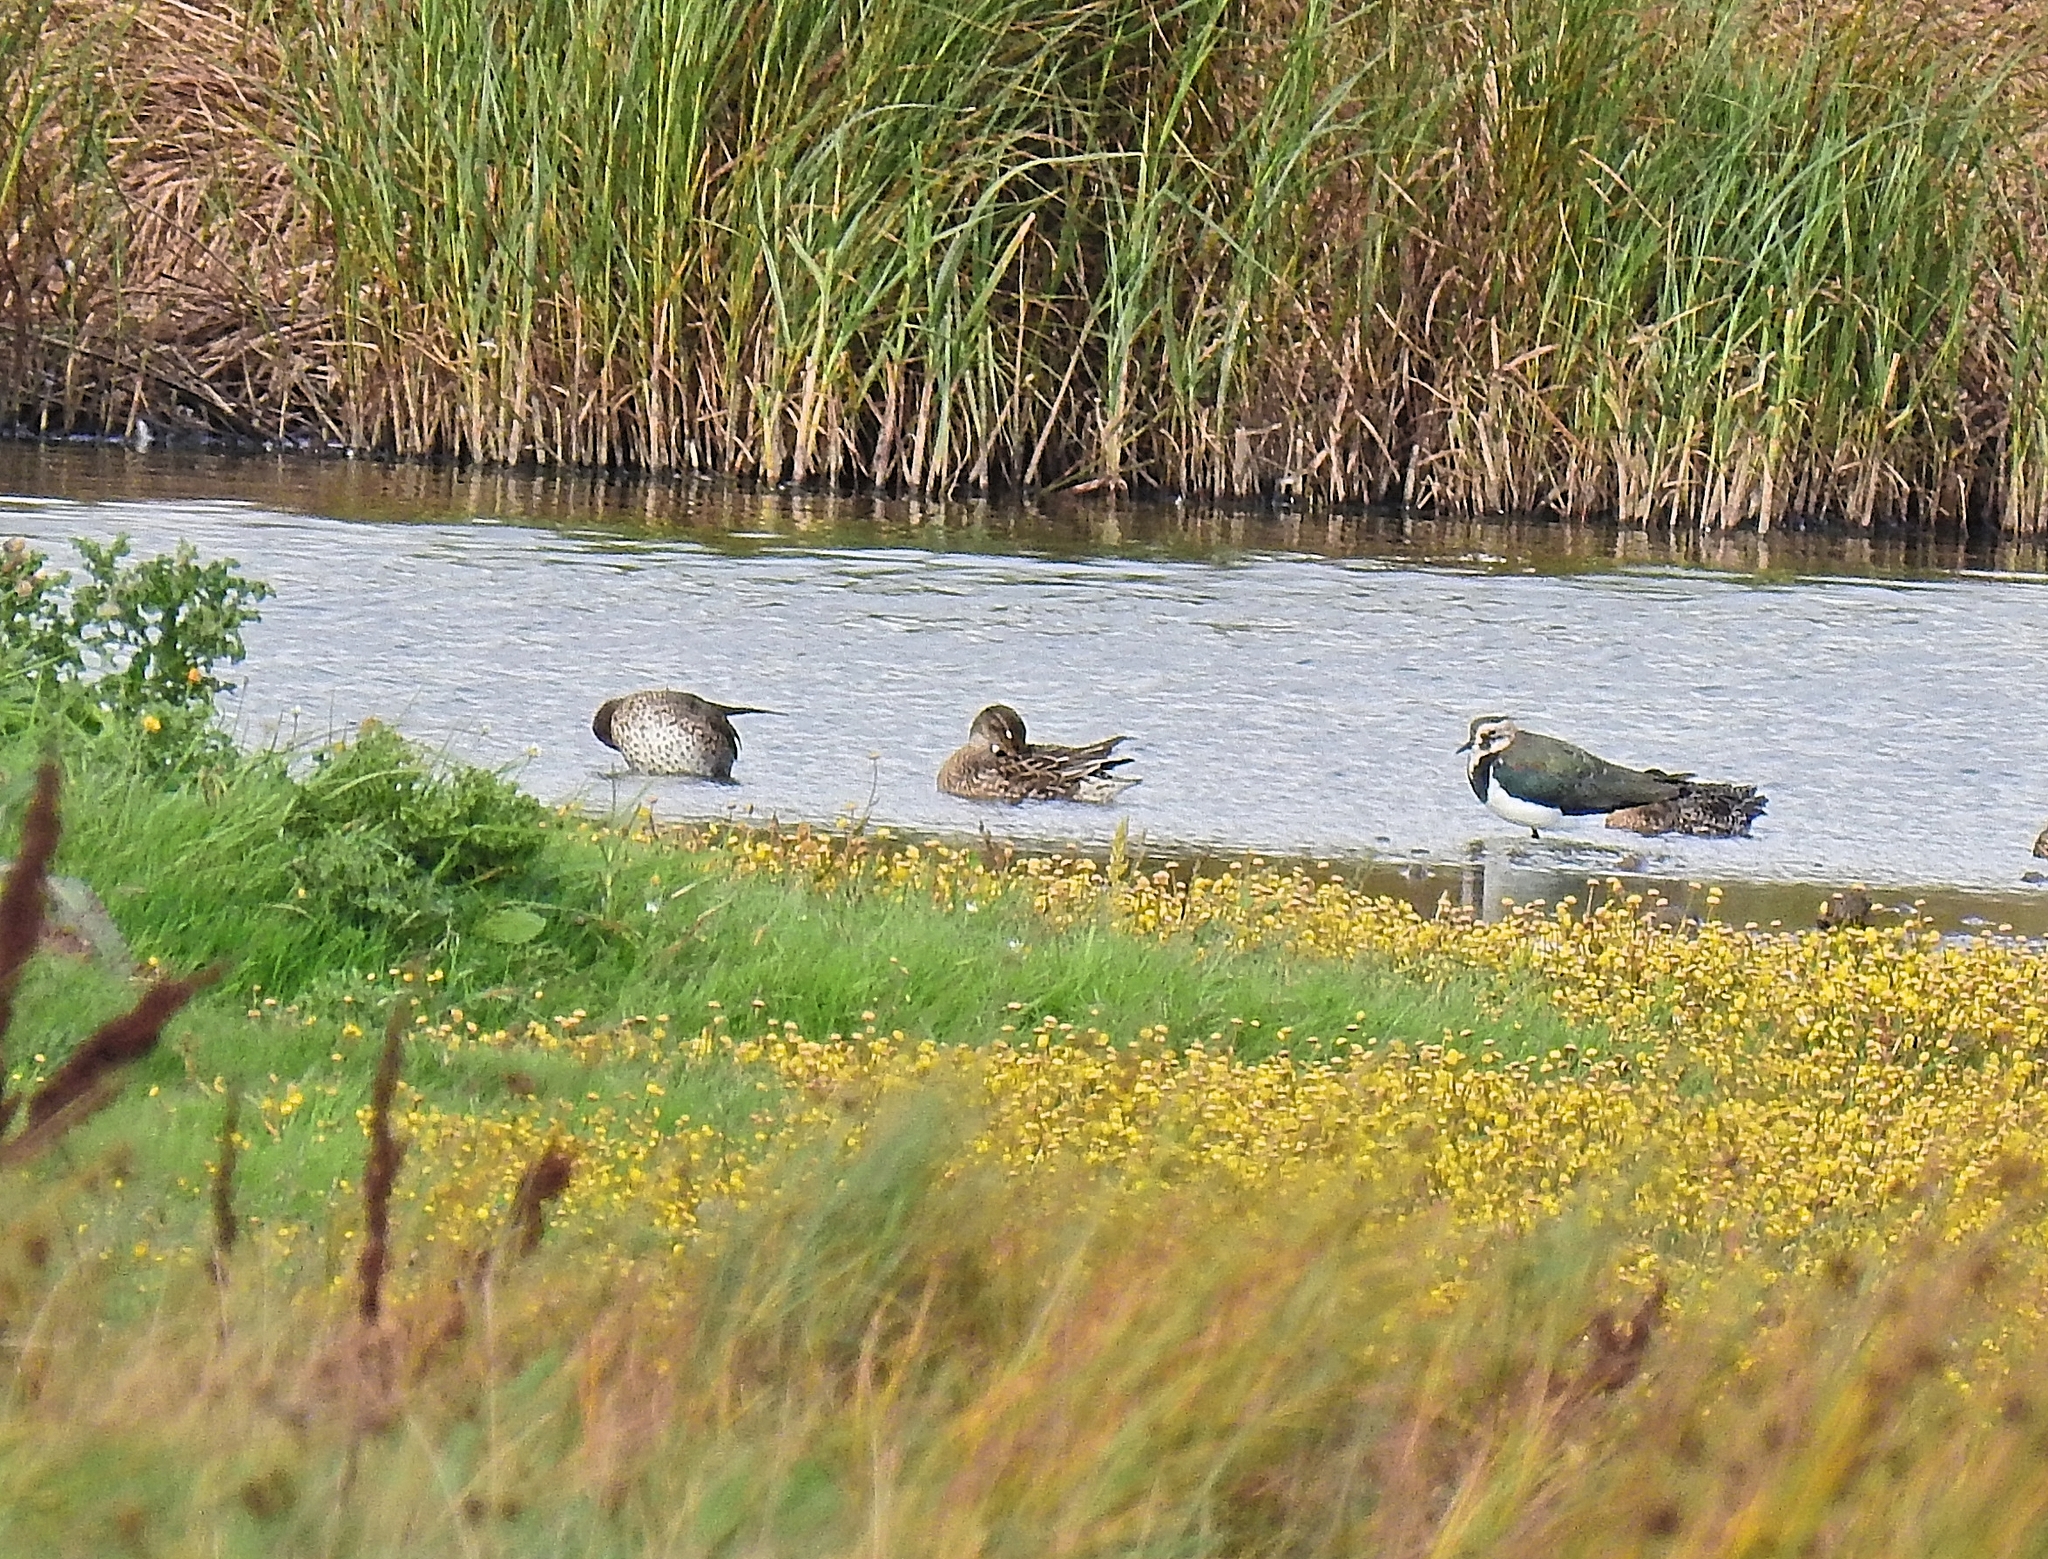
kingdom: Animalia
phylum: Chordata
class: Aves
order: Charadriiformes
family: Charadriidae
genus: Vanellus
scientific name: Vanellus vanellus
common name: Northern lapwing
